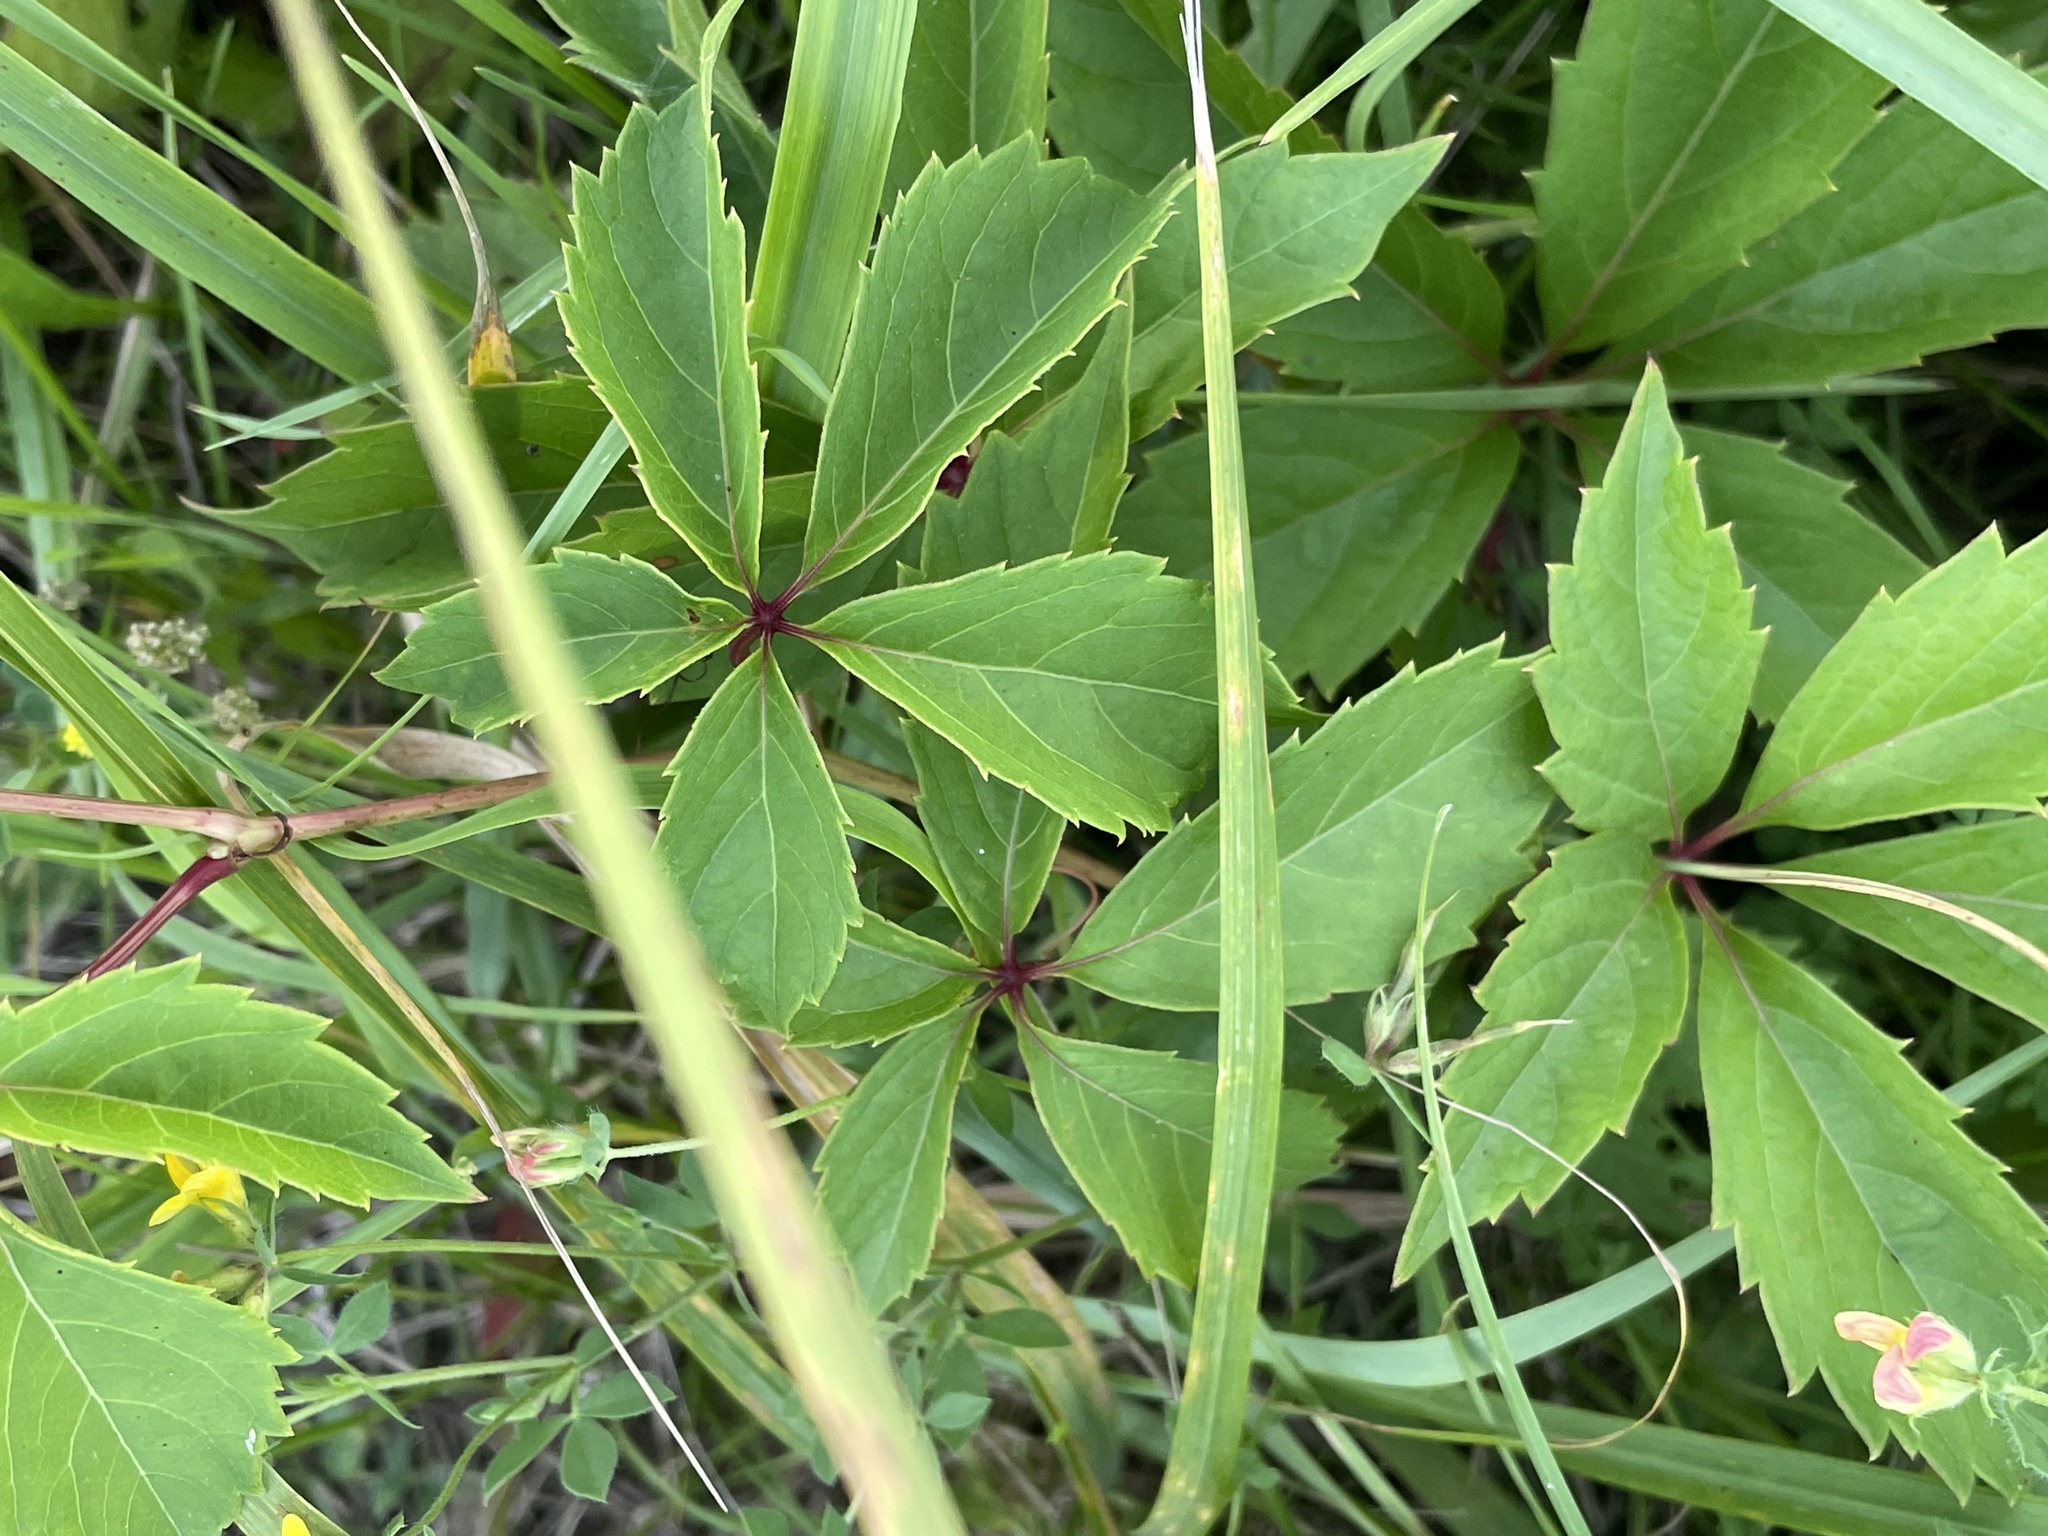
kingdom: Plantae
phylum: Tracheophyta
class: Magnoliopsida
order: Vitales
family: Vitaceae
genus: Parthenocissus
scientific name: Parthenocissus inserta
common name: False virginia-creeper
